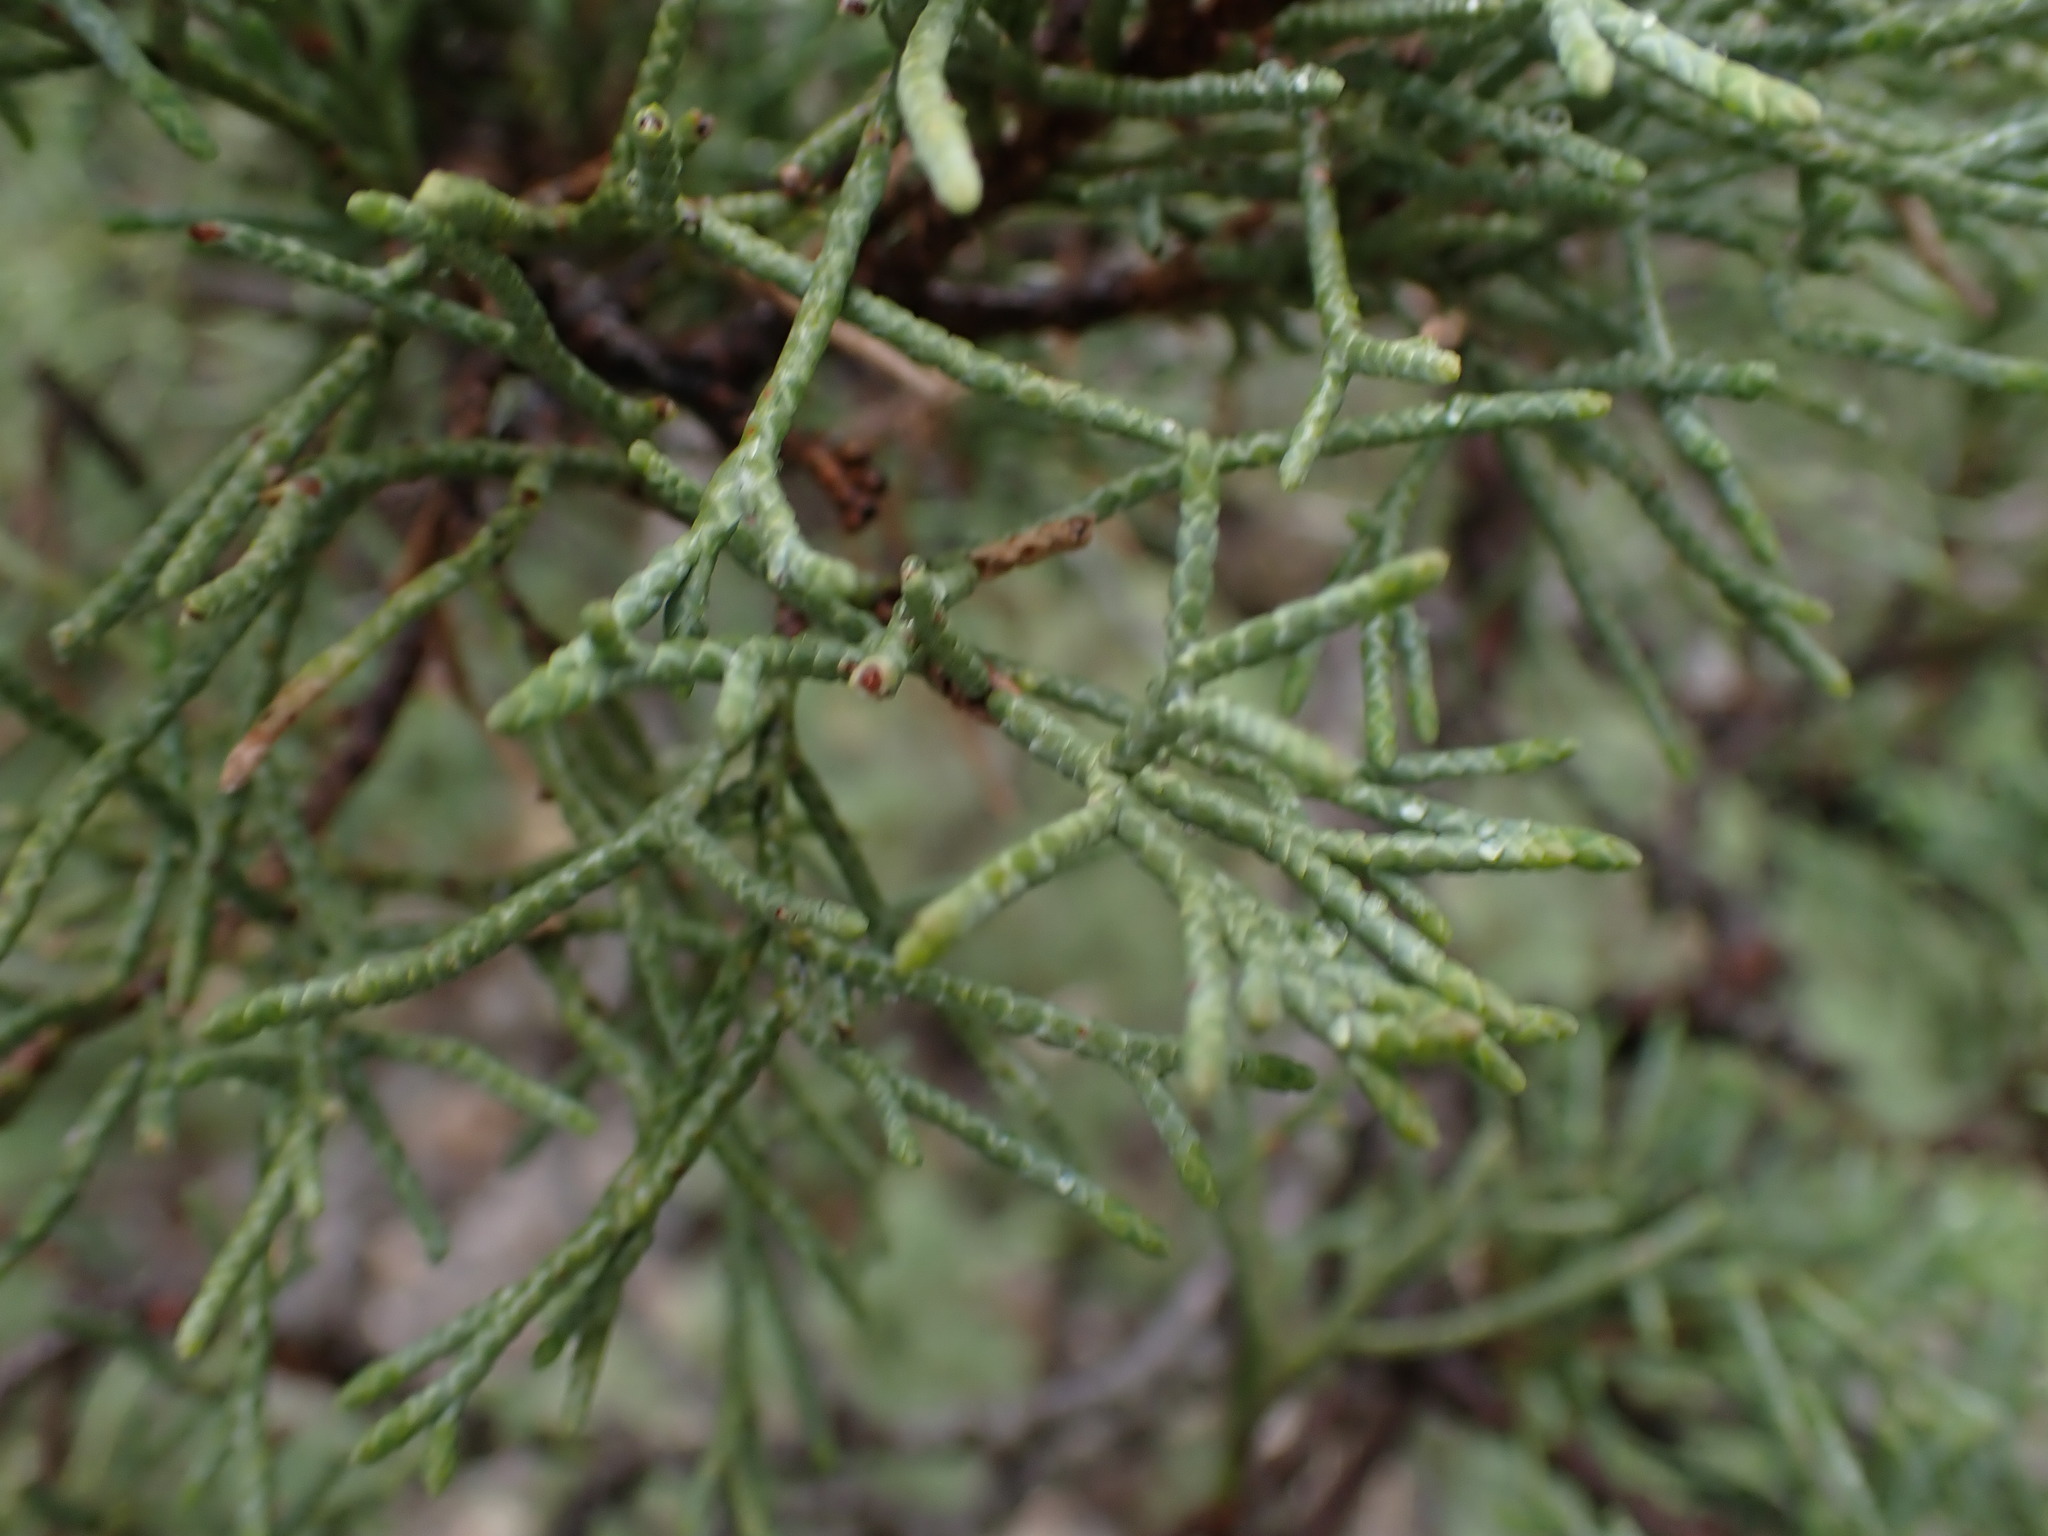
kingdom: Plantae
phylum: Tracheophyta
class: Pinopsida
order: Pinales
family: Cupressaceae
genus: Juniperus
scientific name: Juniperus scopulorum
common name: Rocky mountain juniper
